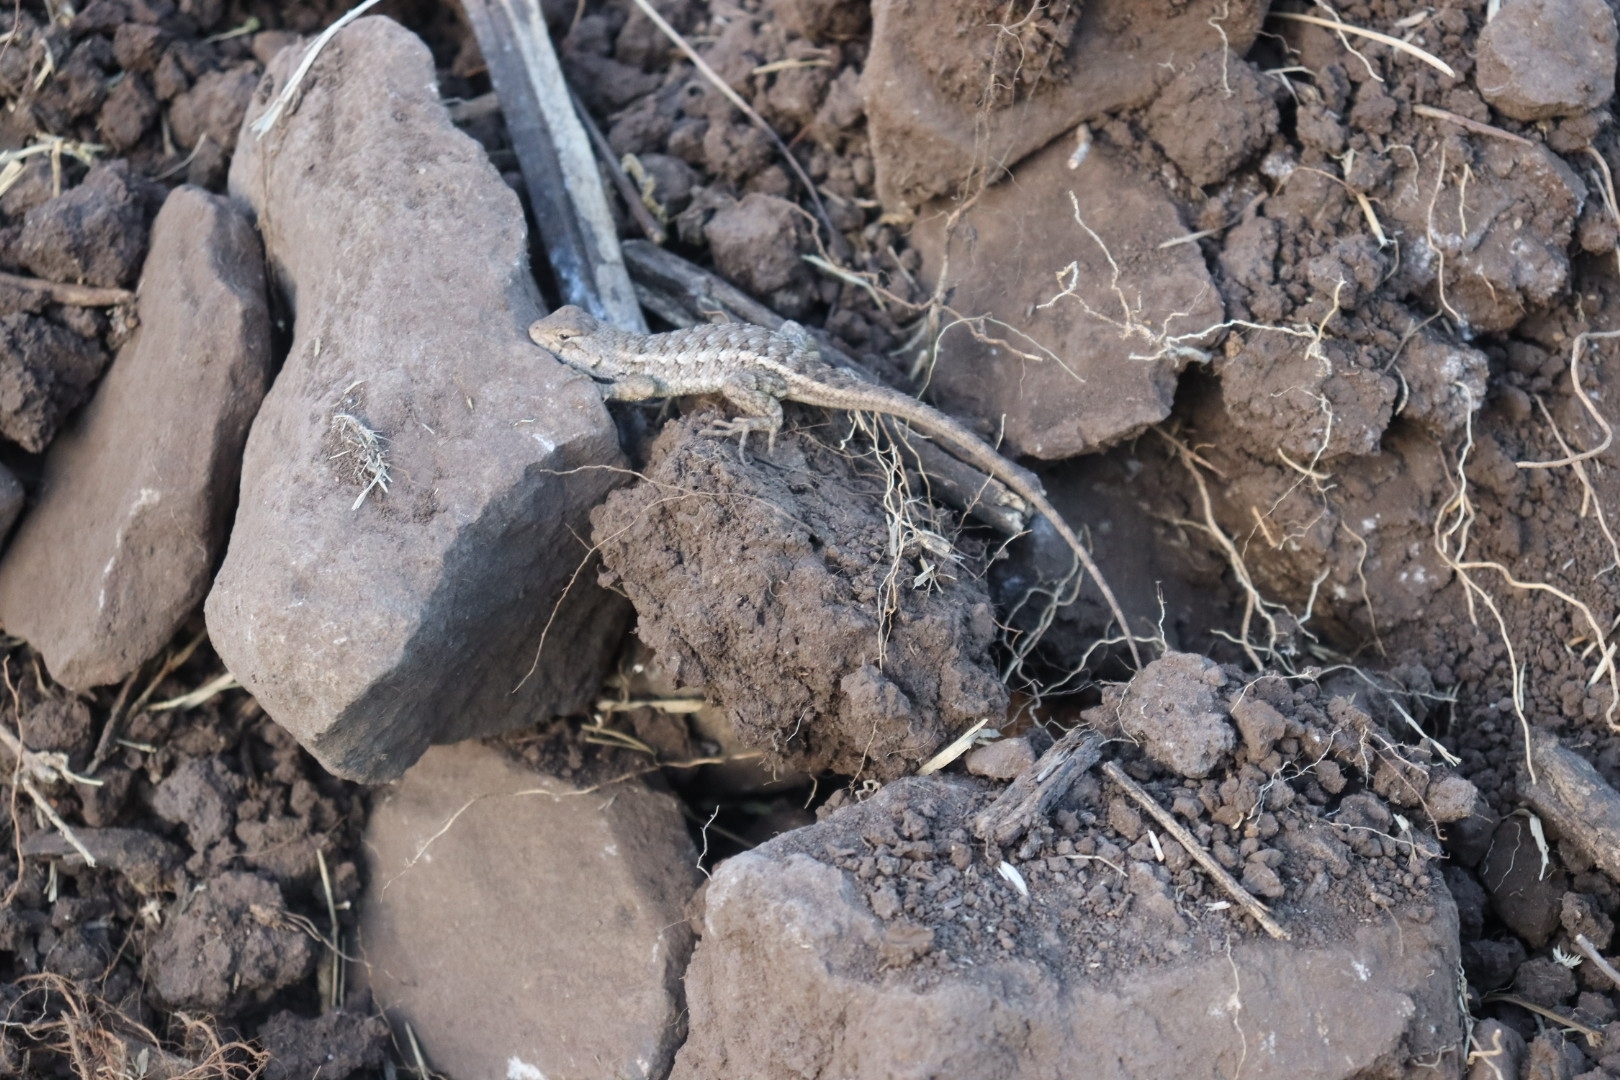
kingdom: Animalia
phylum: Chordata
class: Squamata
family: Phrynosomatidae
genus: Sceloporus
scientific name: Sceloporus albiventris
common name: White-bellied rough lizard
